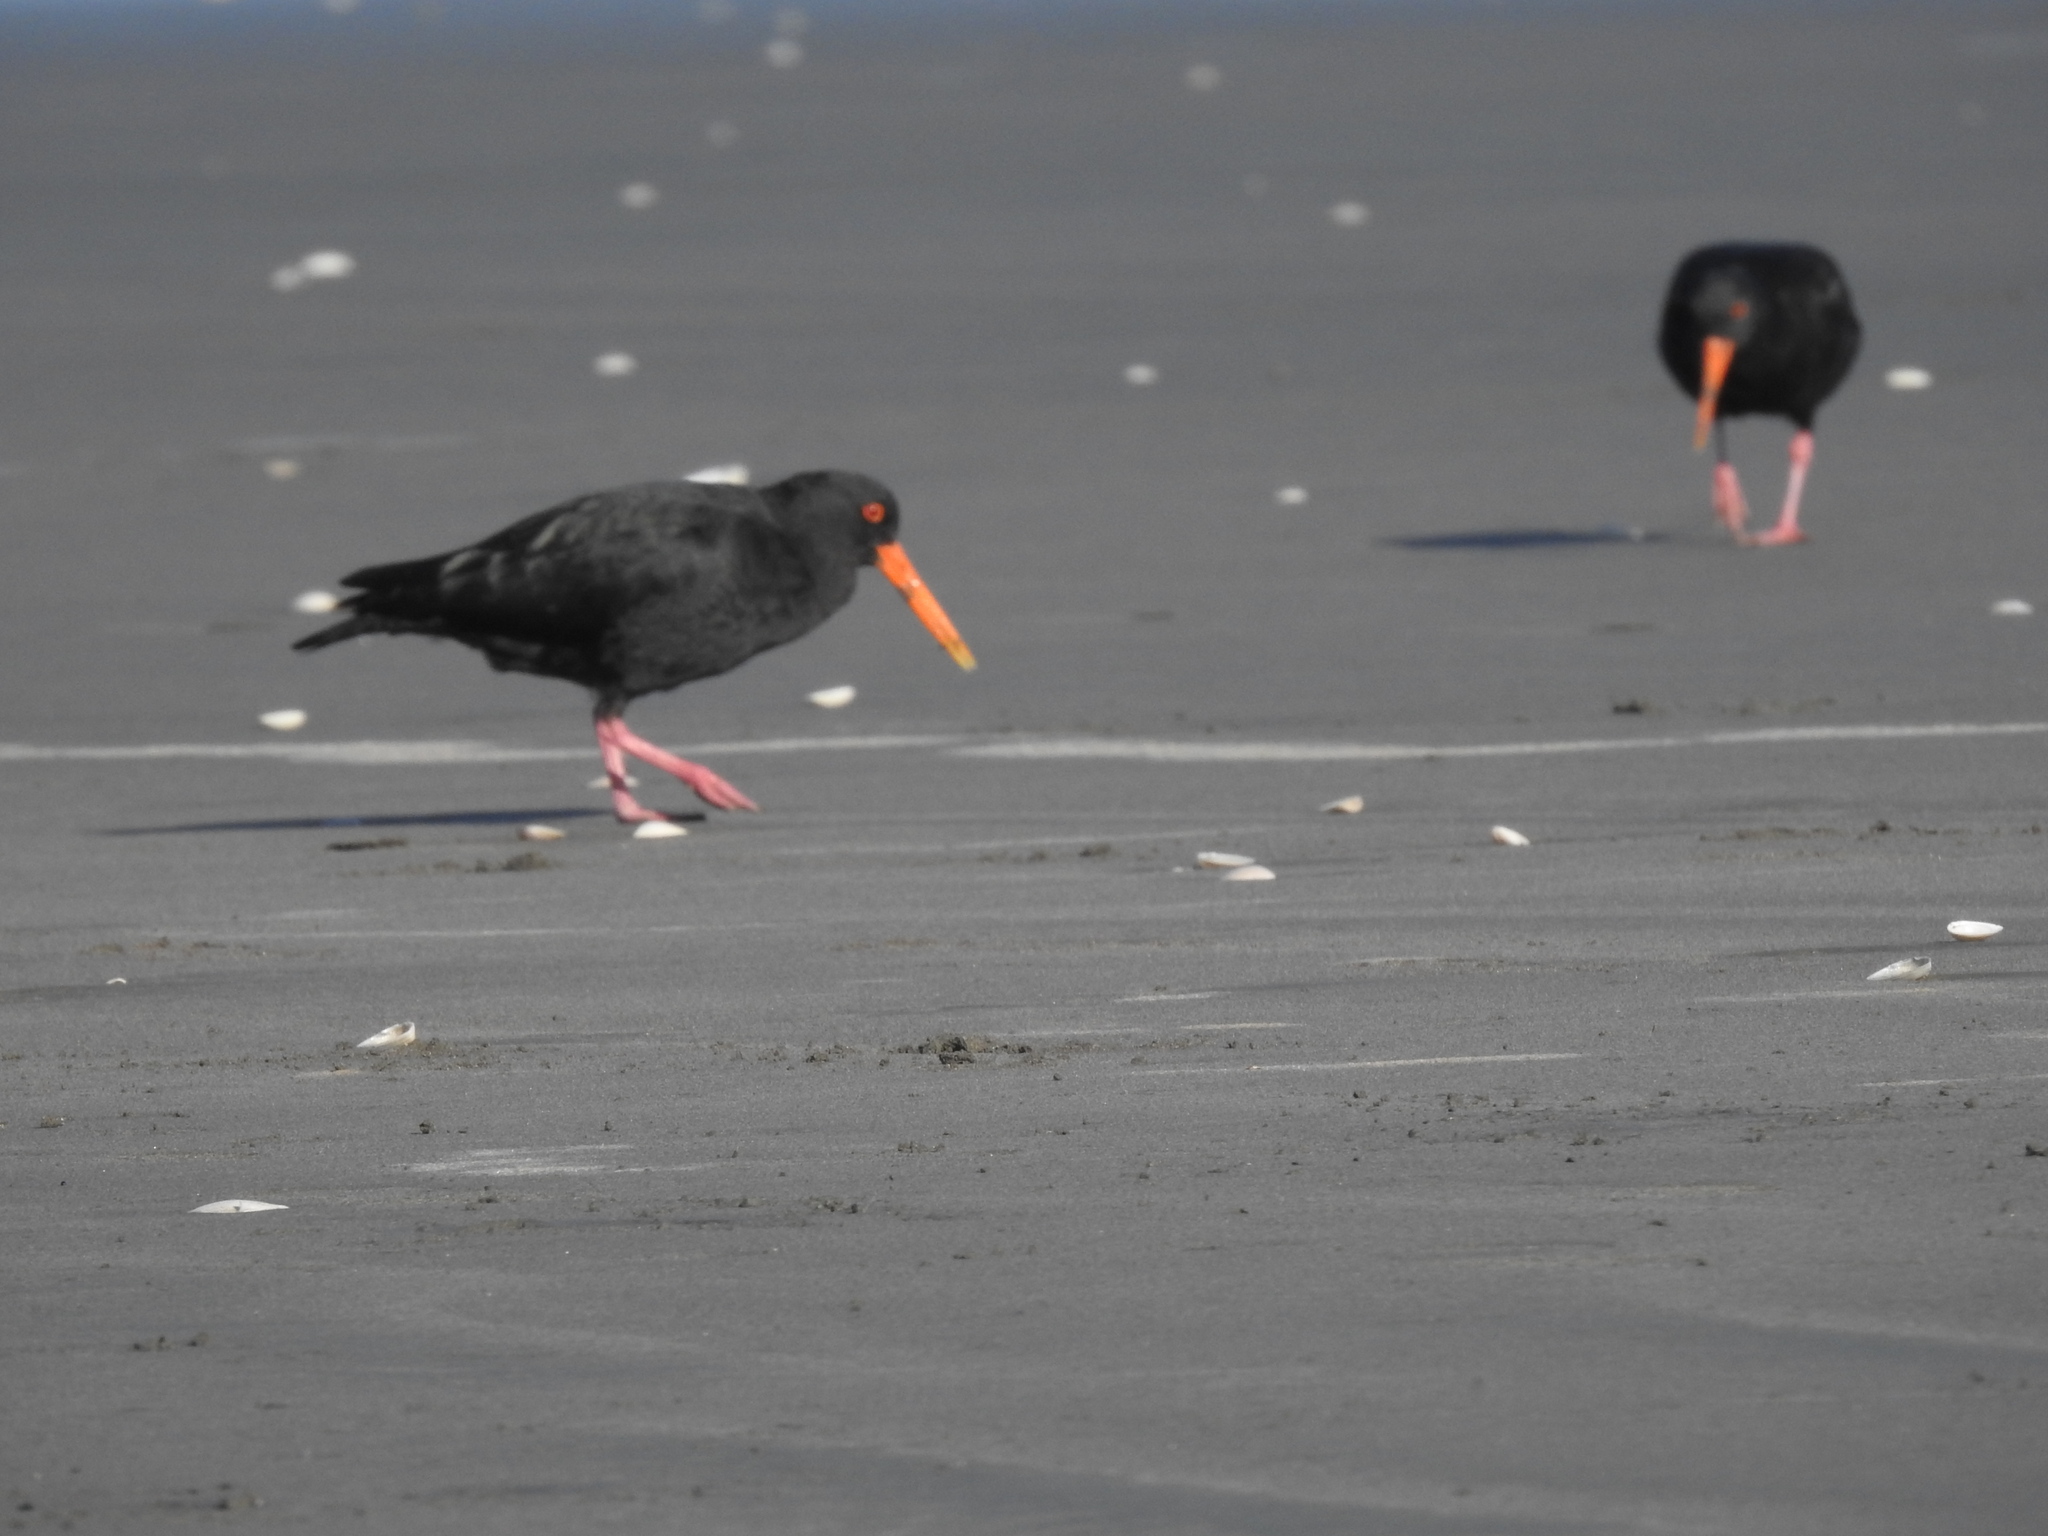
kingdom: Animalia
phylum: Chordata
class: Aves
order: Charadriiformes
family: Haematopodidae
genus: Haematopus
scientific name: Haematopus unicolor
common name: Variable oystercatcher
